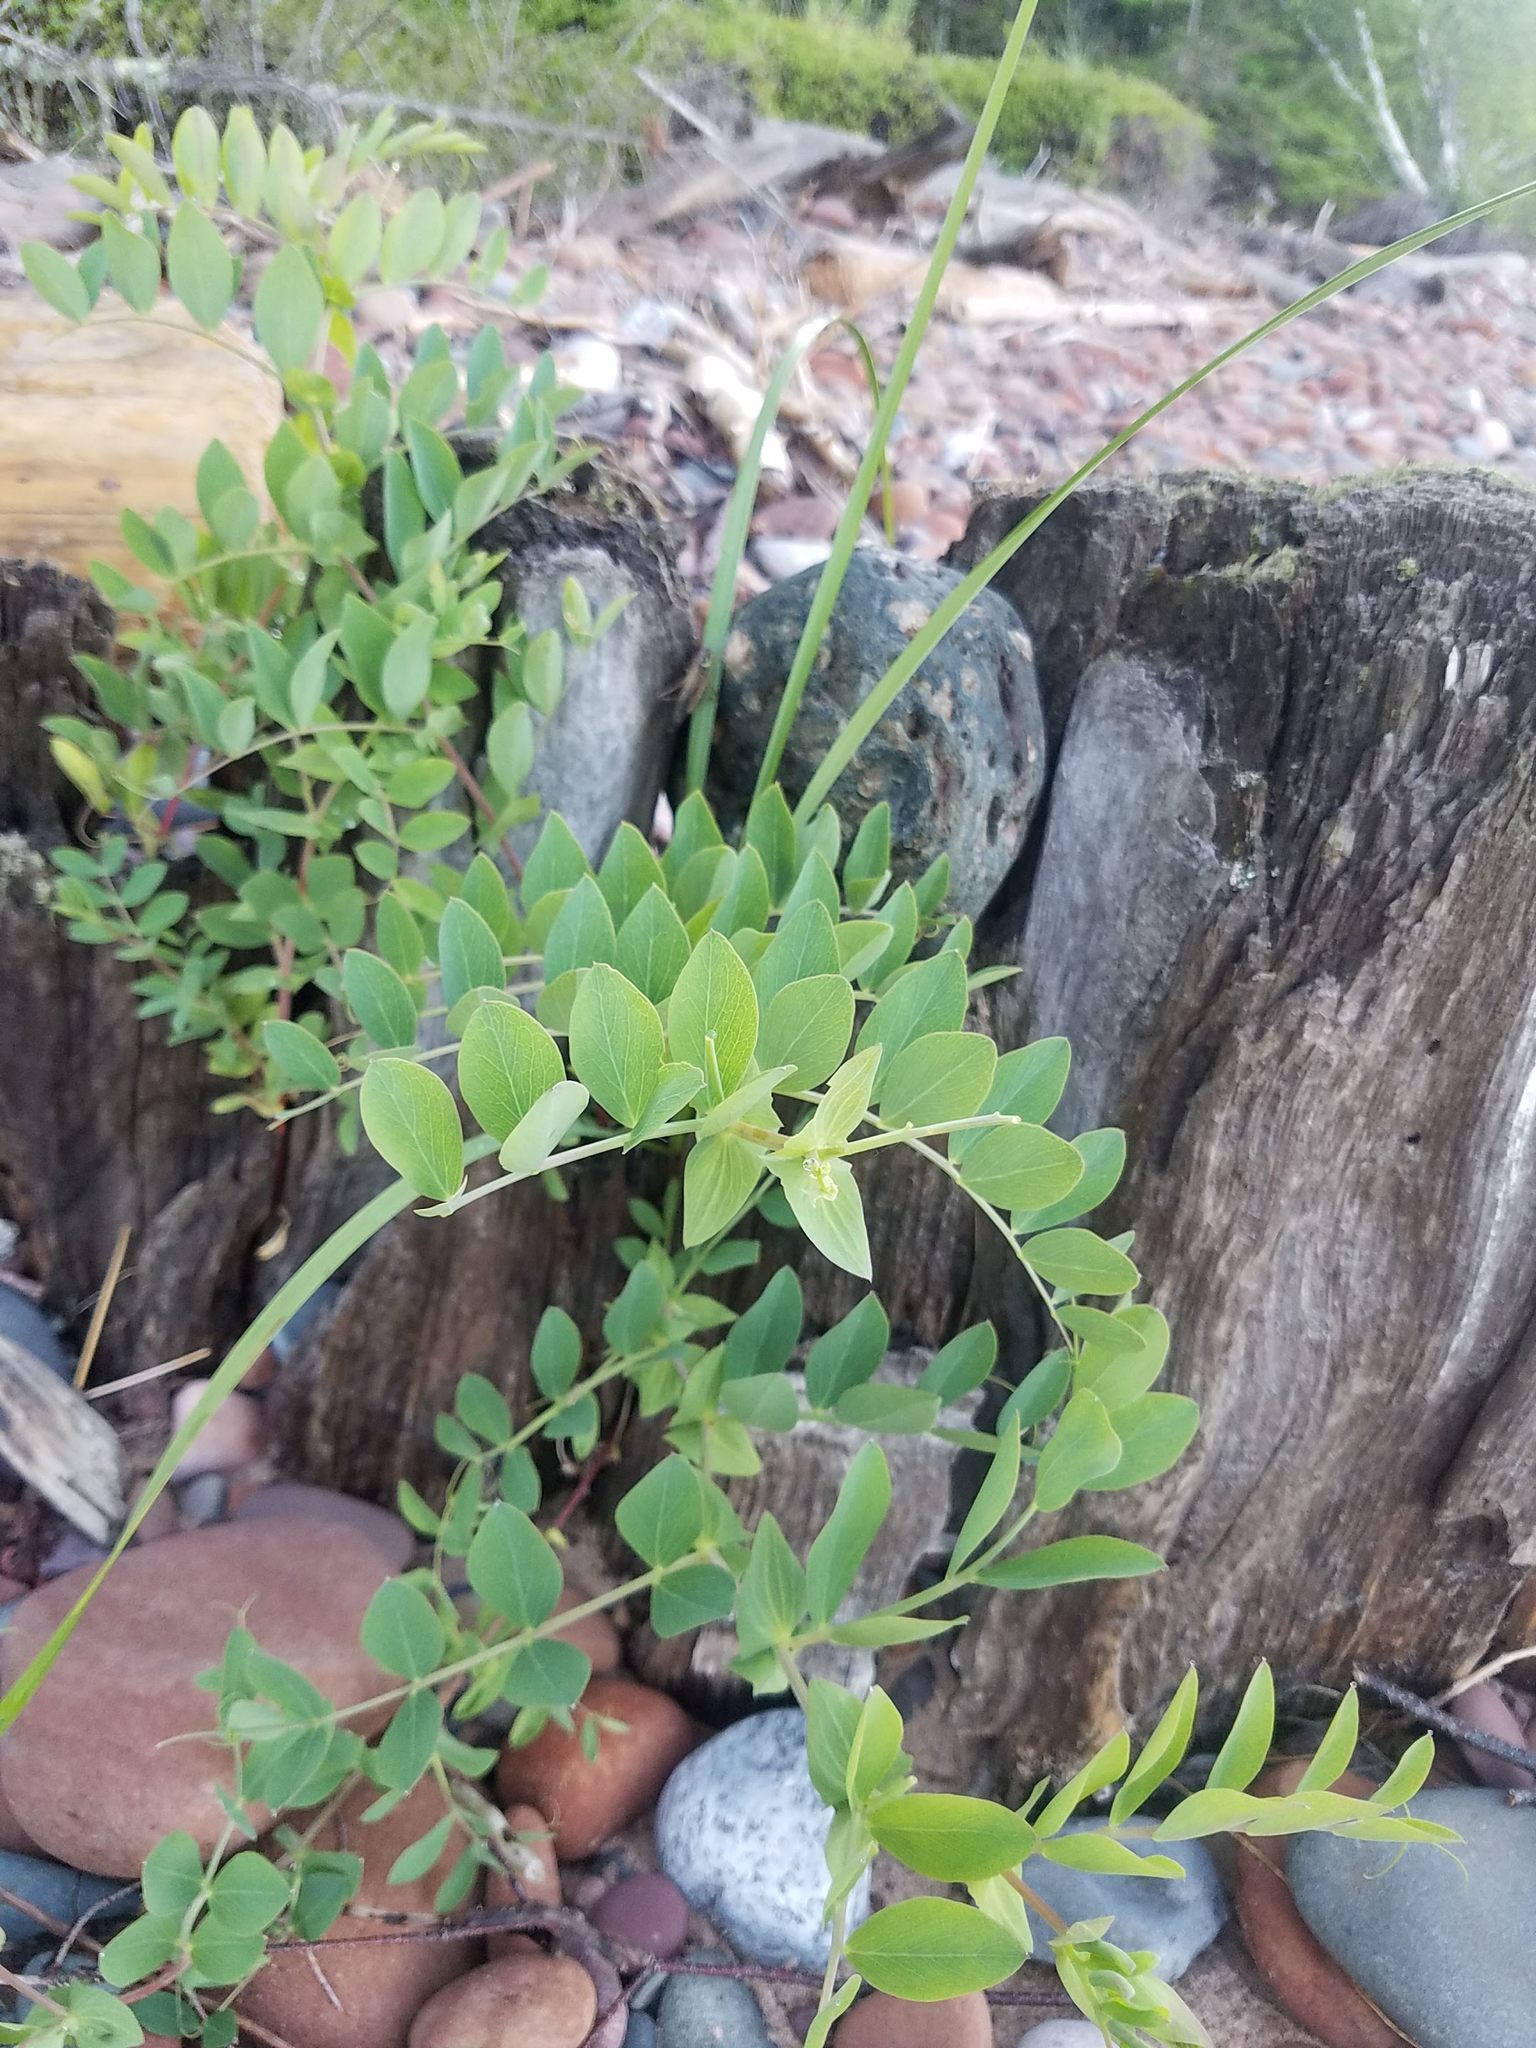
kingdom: Plantae
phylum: Tracheophyta
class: Magnoliopsida
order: Fabales
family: Fabaceae
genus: Lathyrus
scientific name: Lathyrus japonicus
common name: Sea pea
